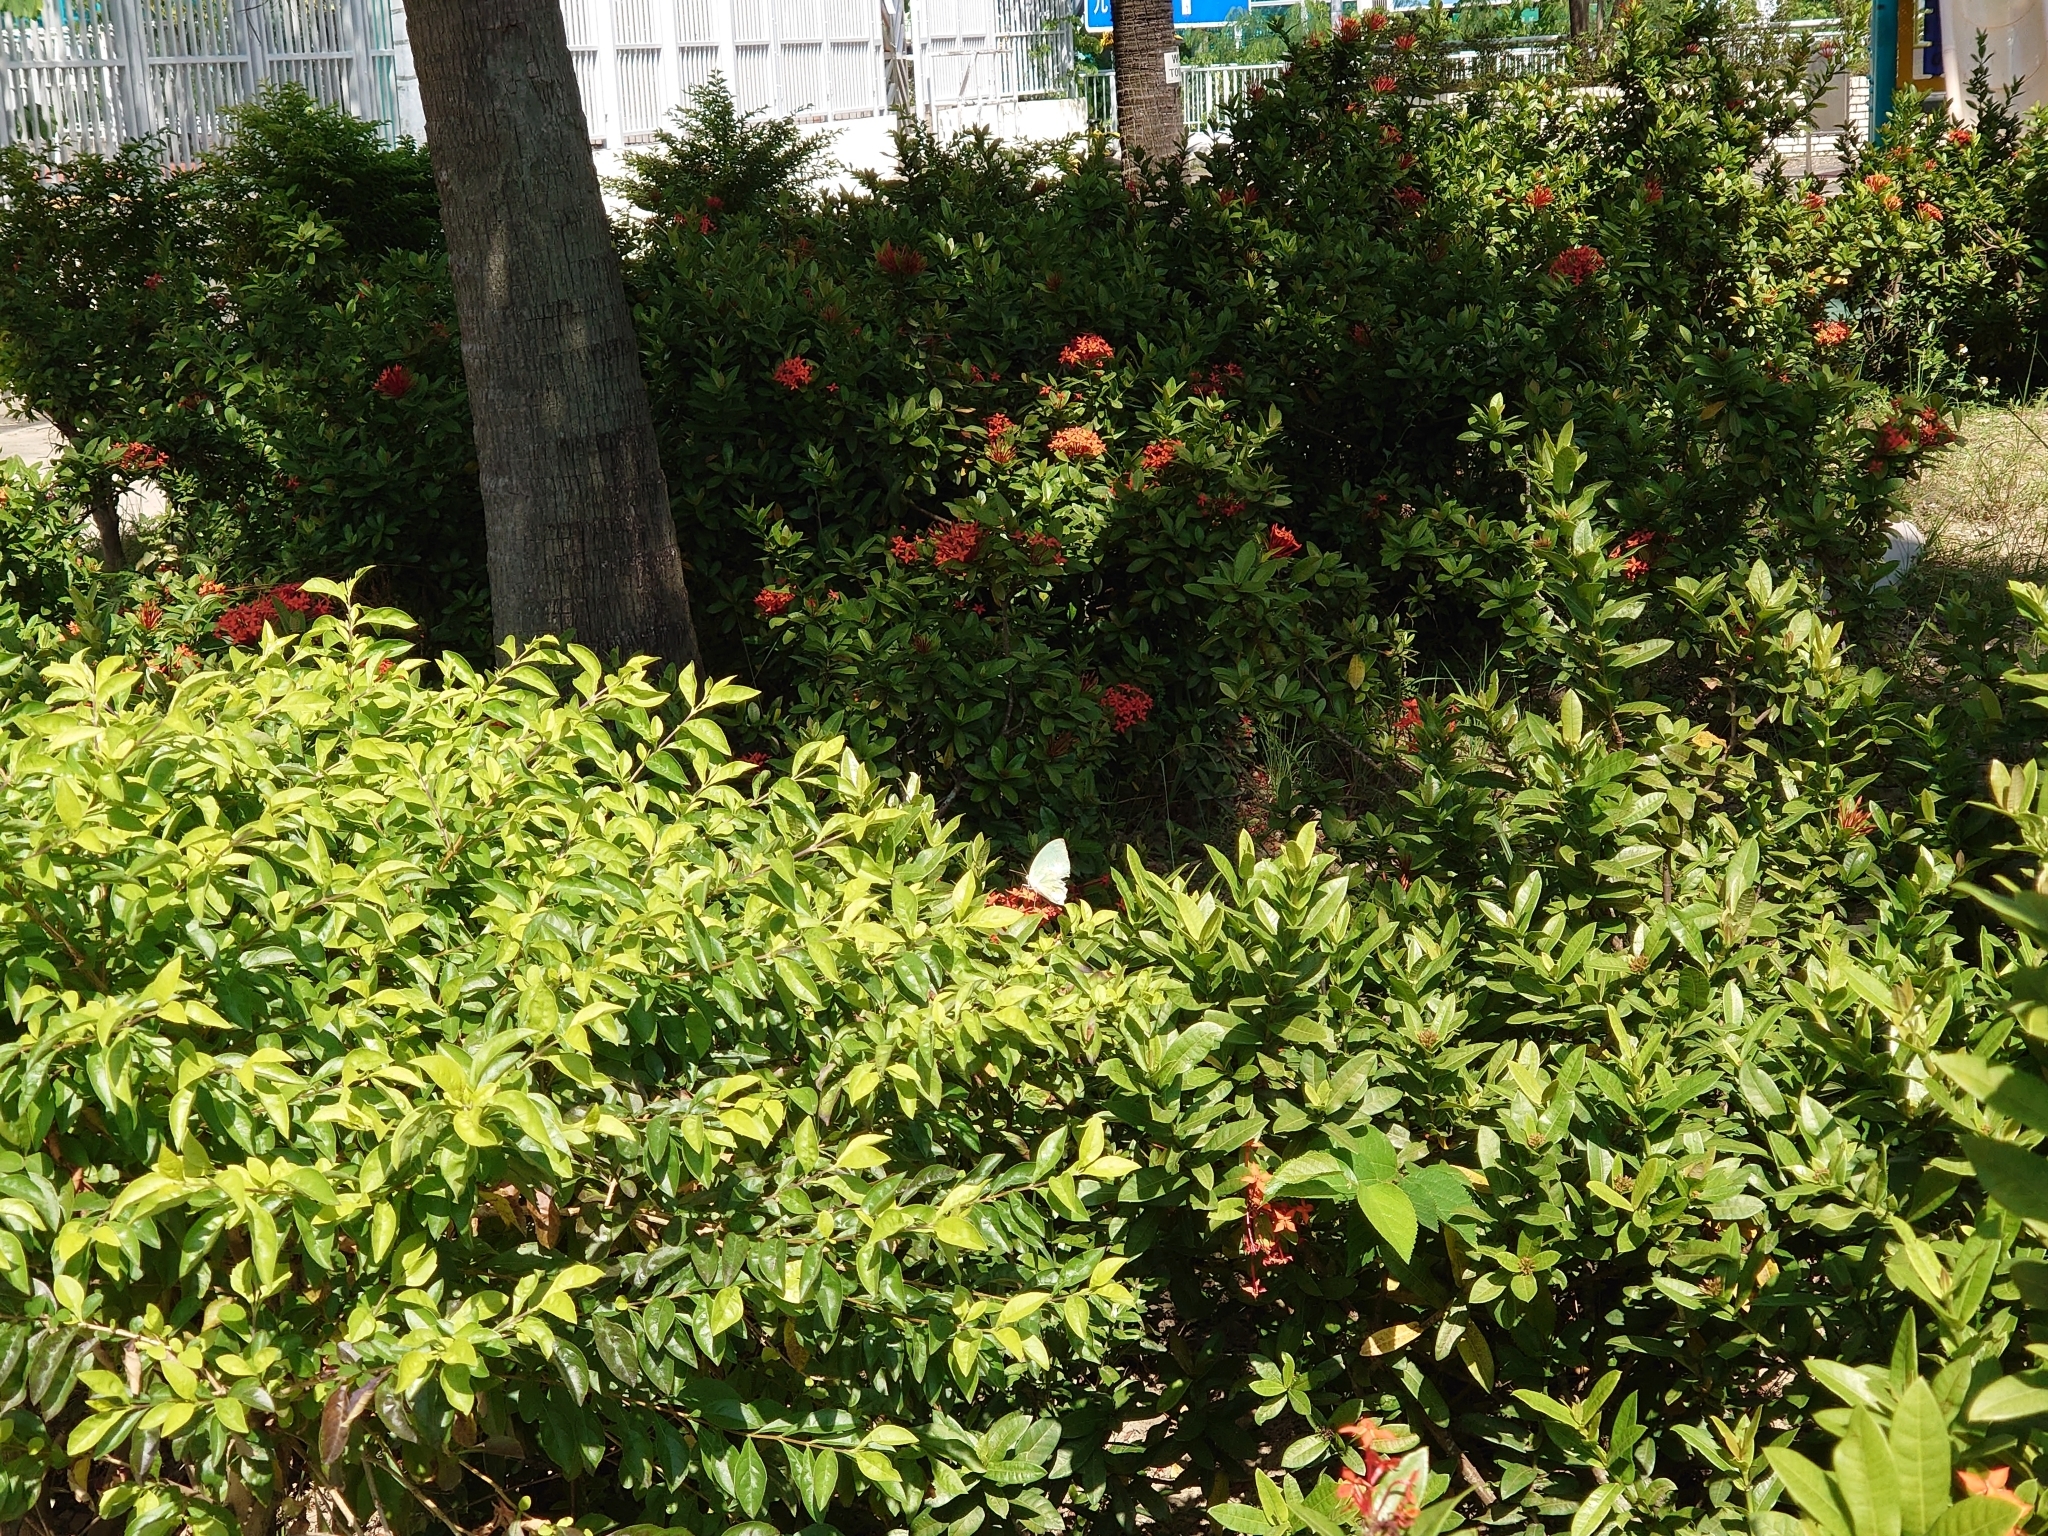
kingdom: Animalia
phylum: Arthropoda
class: Insecta
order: Lepidoptera
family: Pieridae
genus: Catopsilia
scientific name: Catopsilia pomona
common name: Common emigrant
